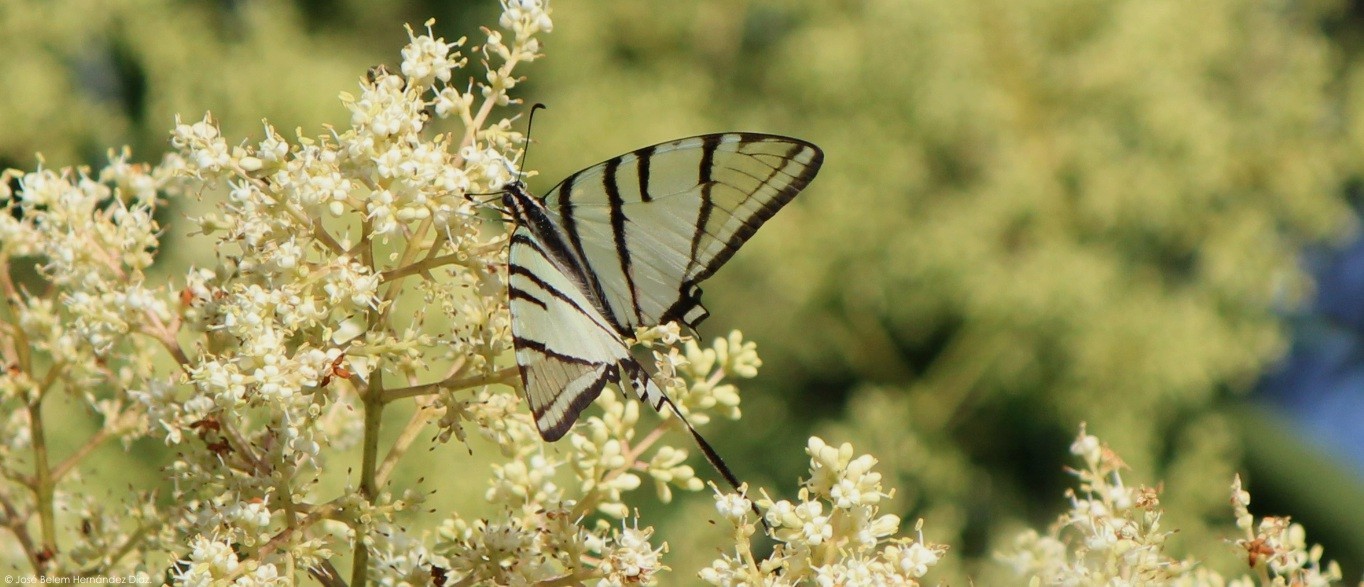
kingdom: Animalia
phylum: Arthropoda
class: Insecta
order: Lepidoptera
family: Papilionidae
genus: Protographium
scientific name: Protographium epidaus
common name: Mexican kite swallowtail
